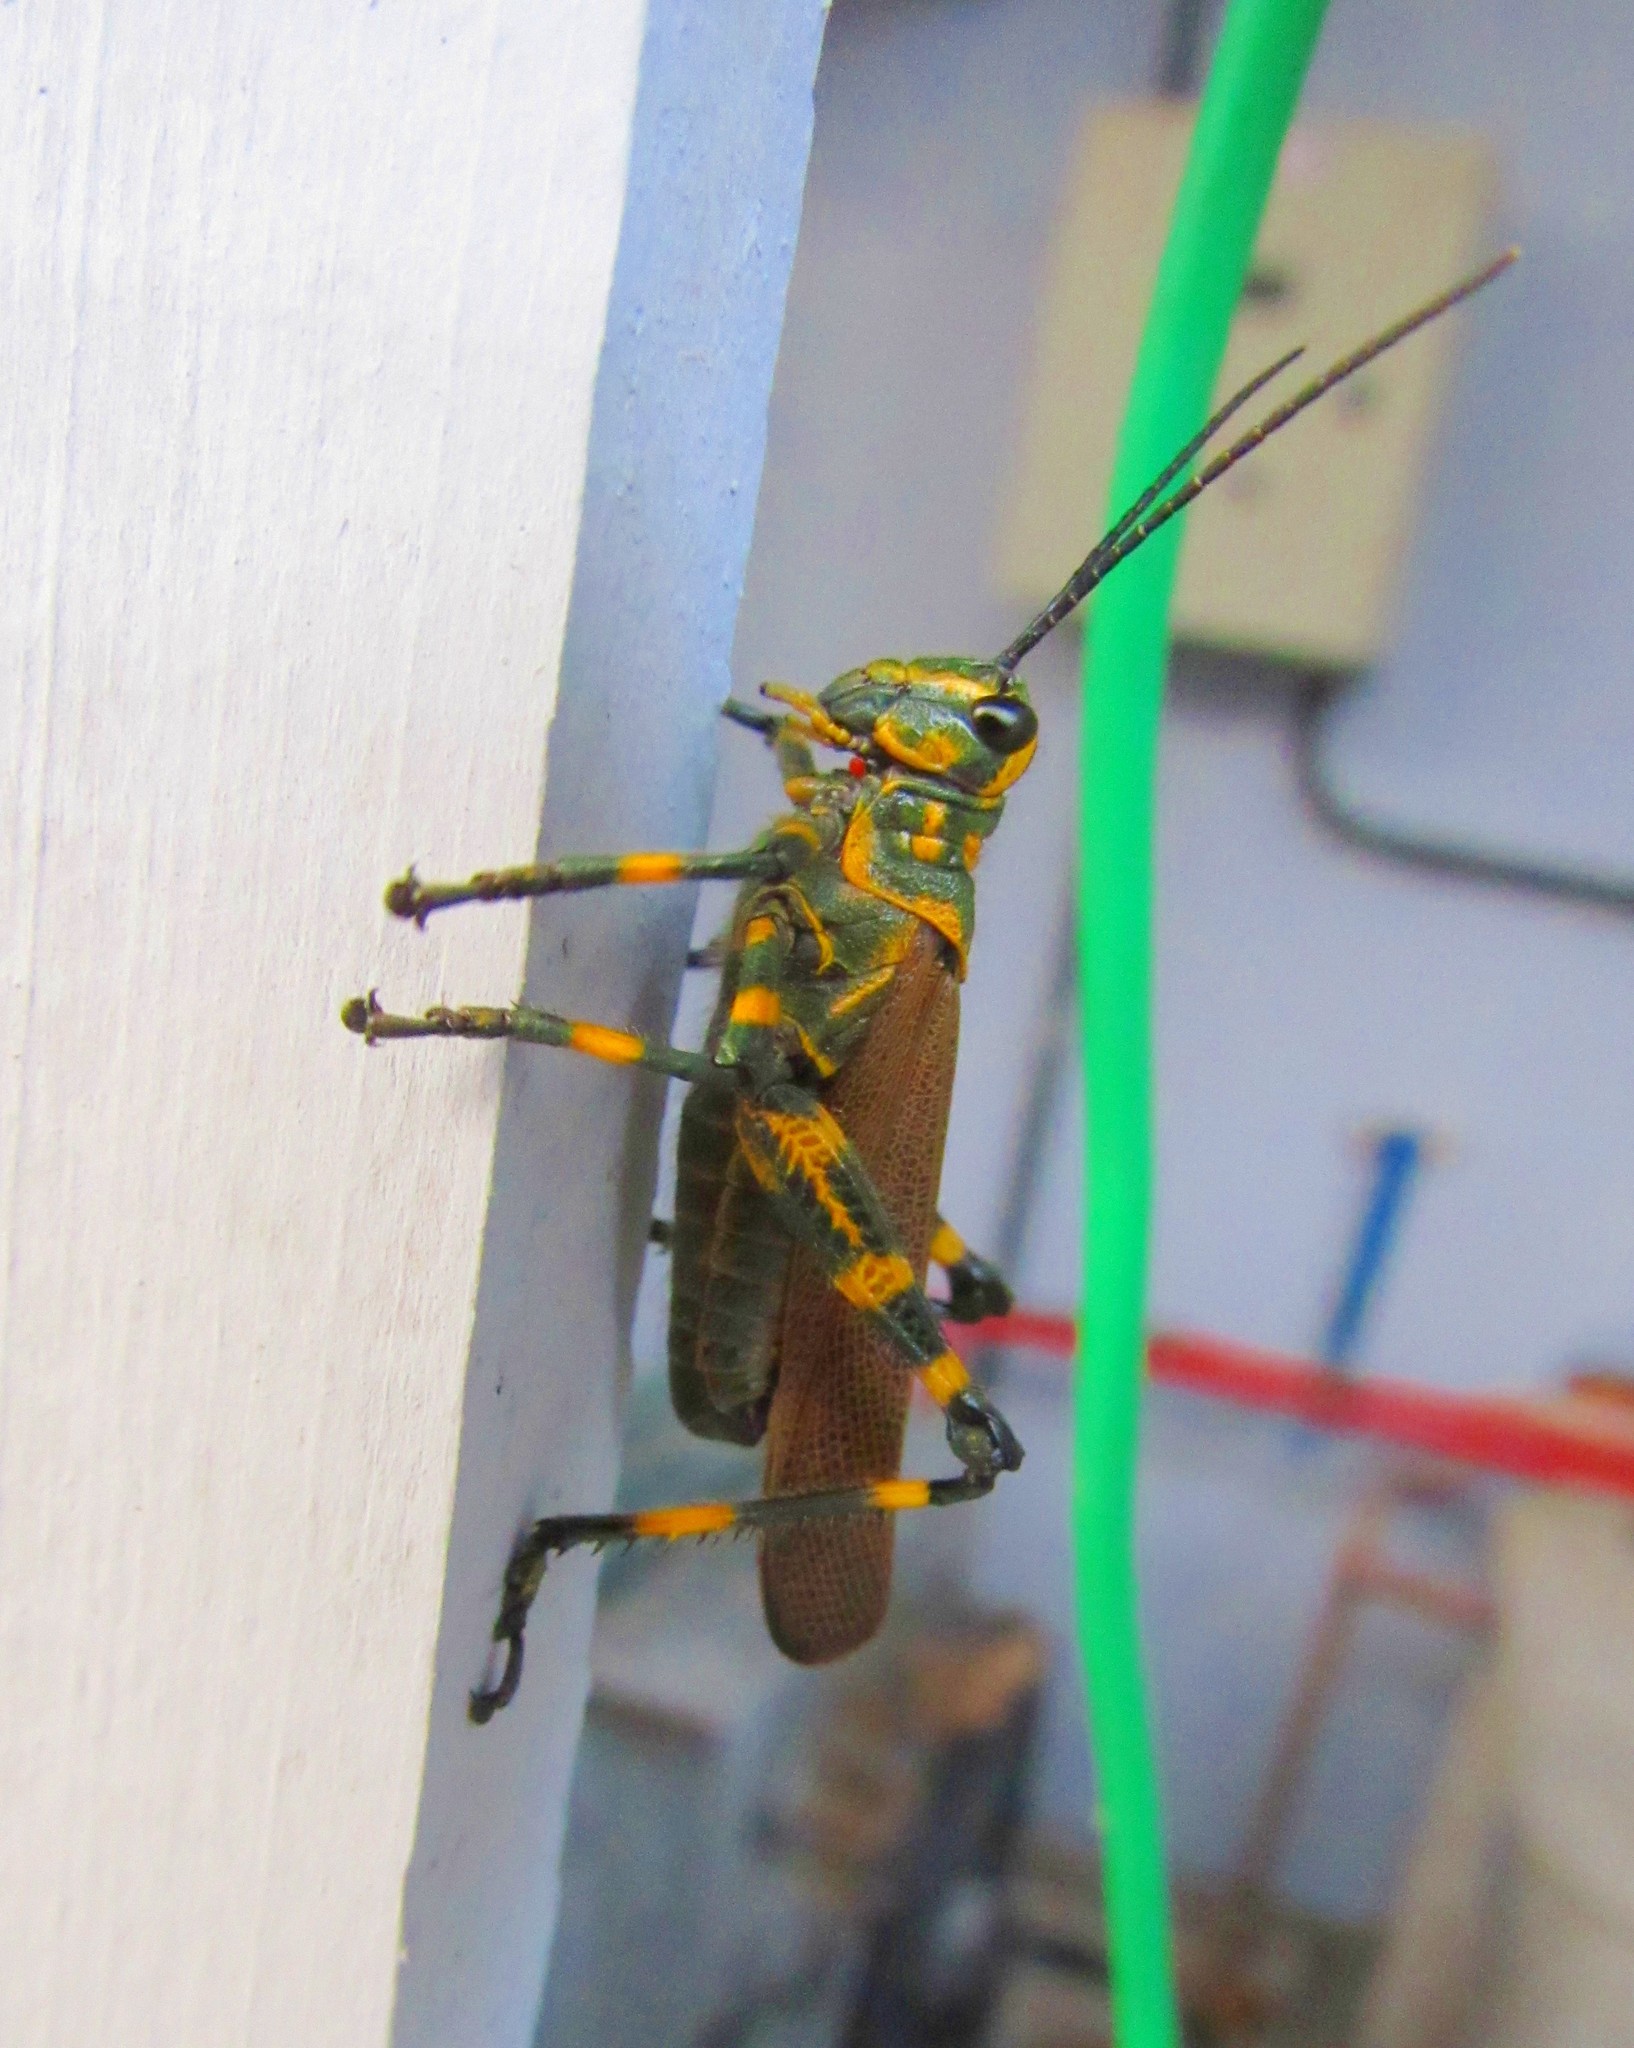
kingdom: Animalia
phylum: Arthropoda
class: Insecta
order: Orthoptera
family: Romaleidae
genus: Chromacris
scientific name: Chromacris speciosa
